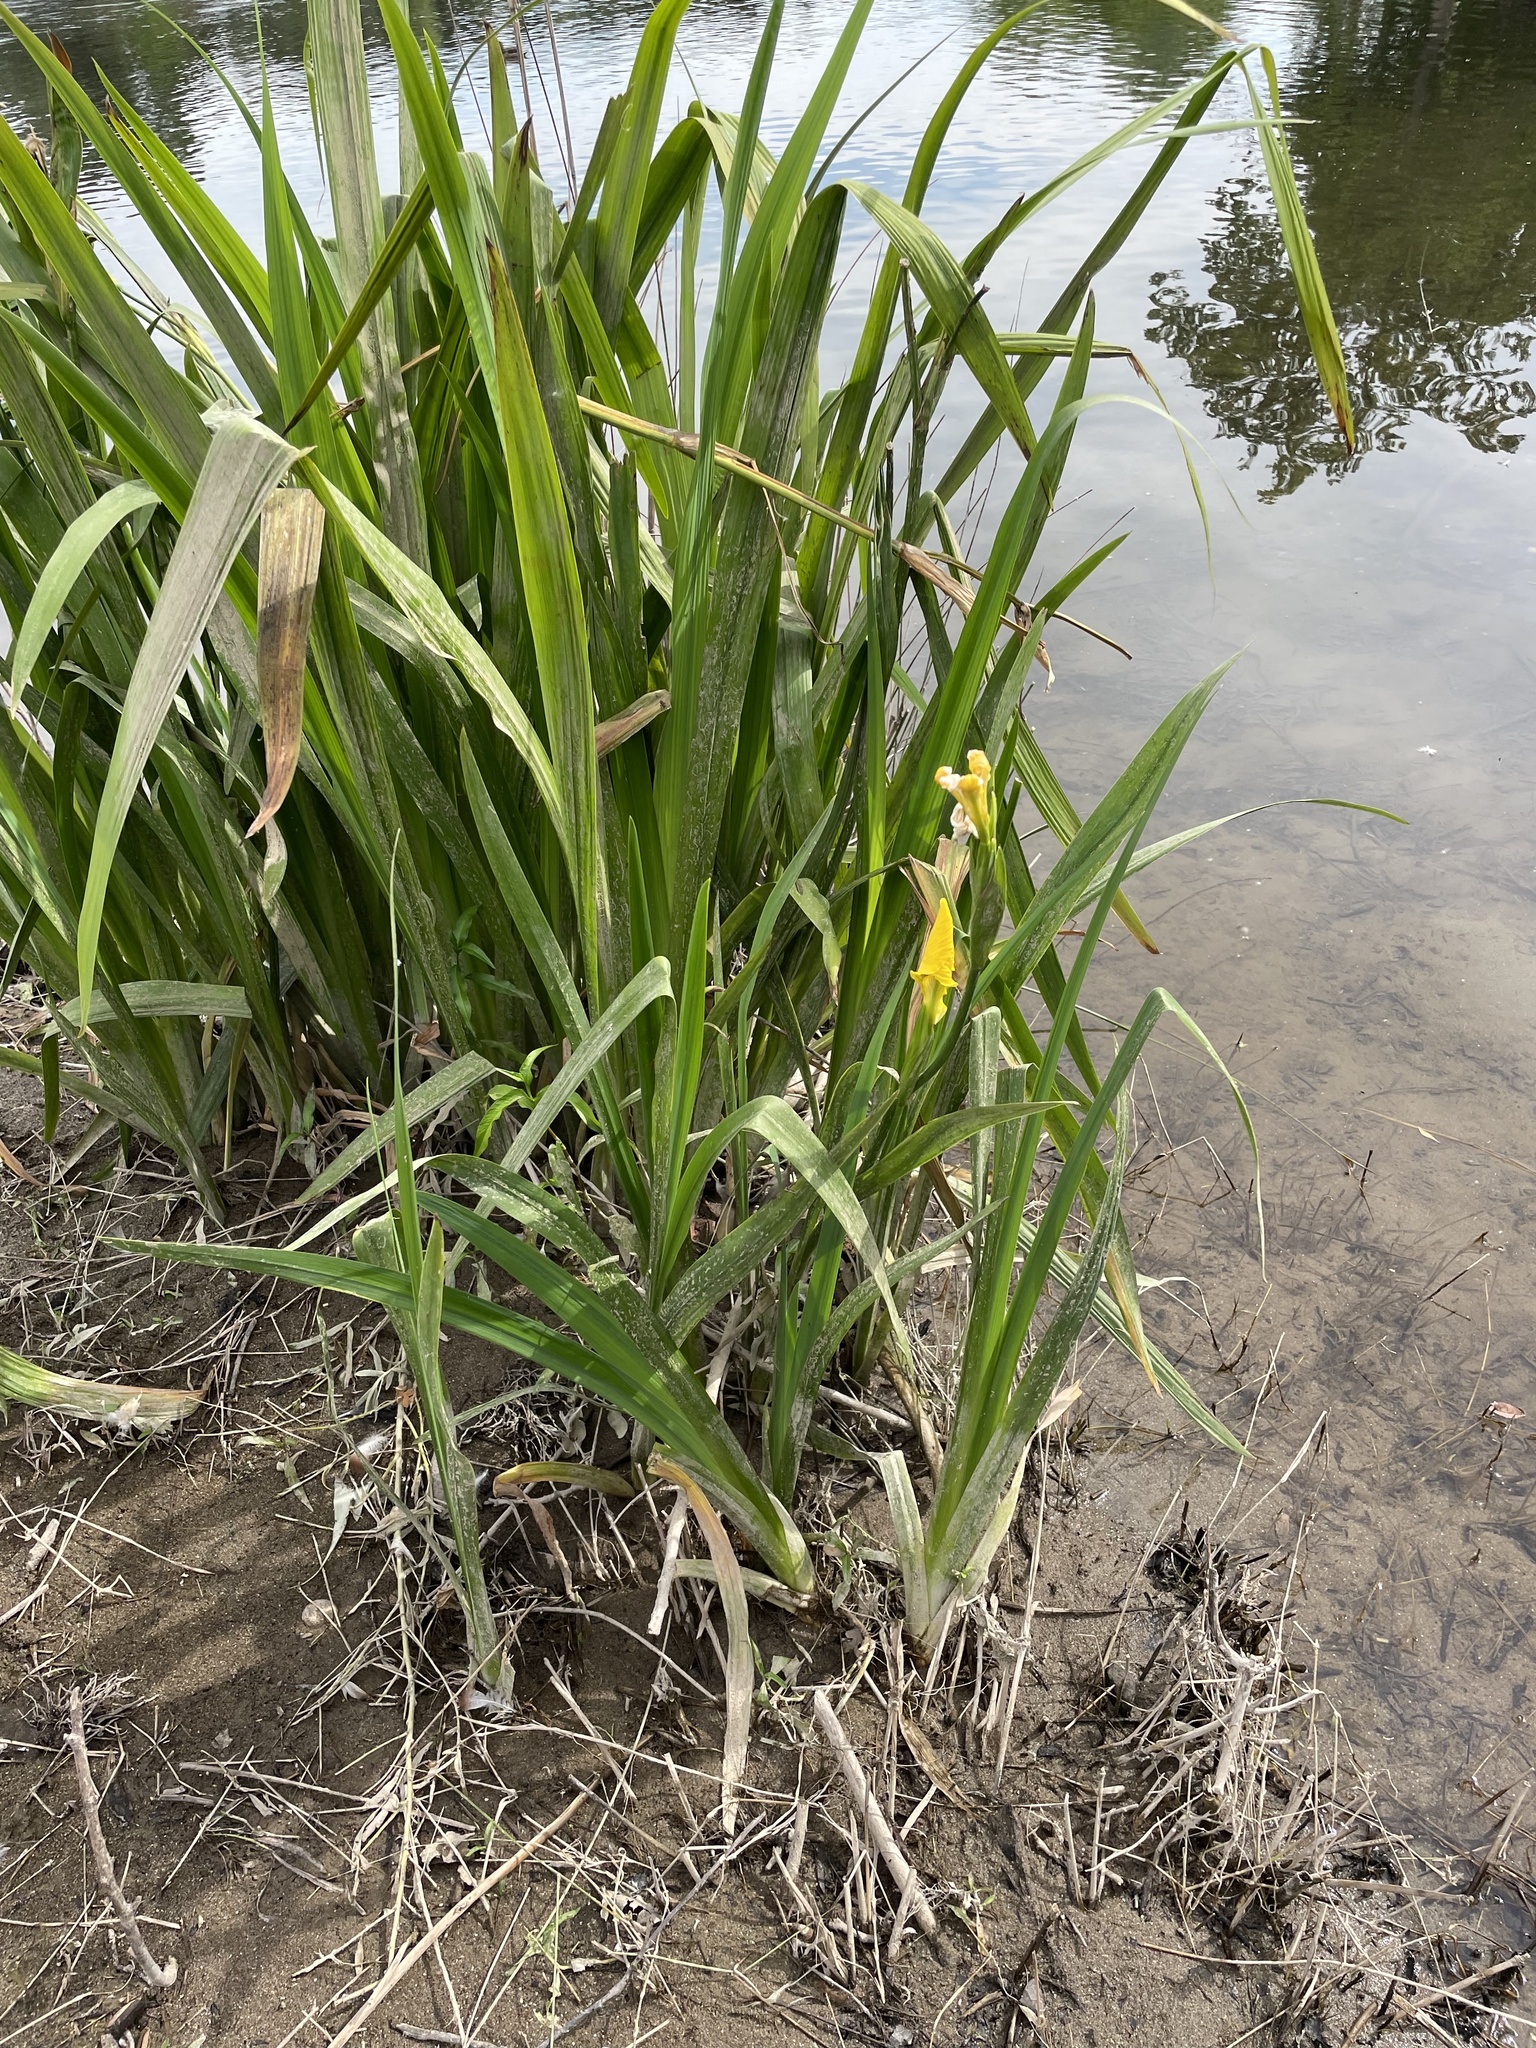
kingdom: Plantae
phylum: Tracheophyta
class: Liliopsida
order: Asparagales
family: Iridaceae
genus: Iris
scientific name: Iris pseudacorus
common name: Yellow flag
